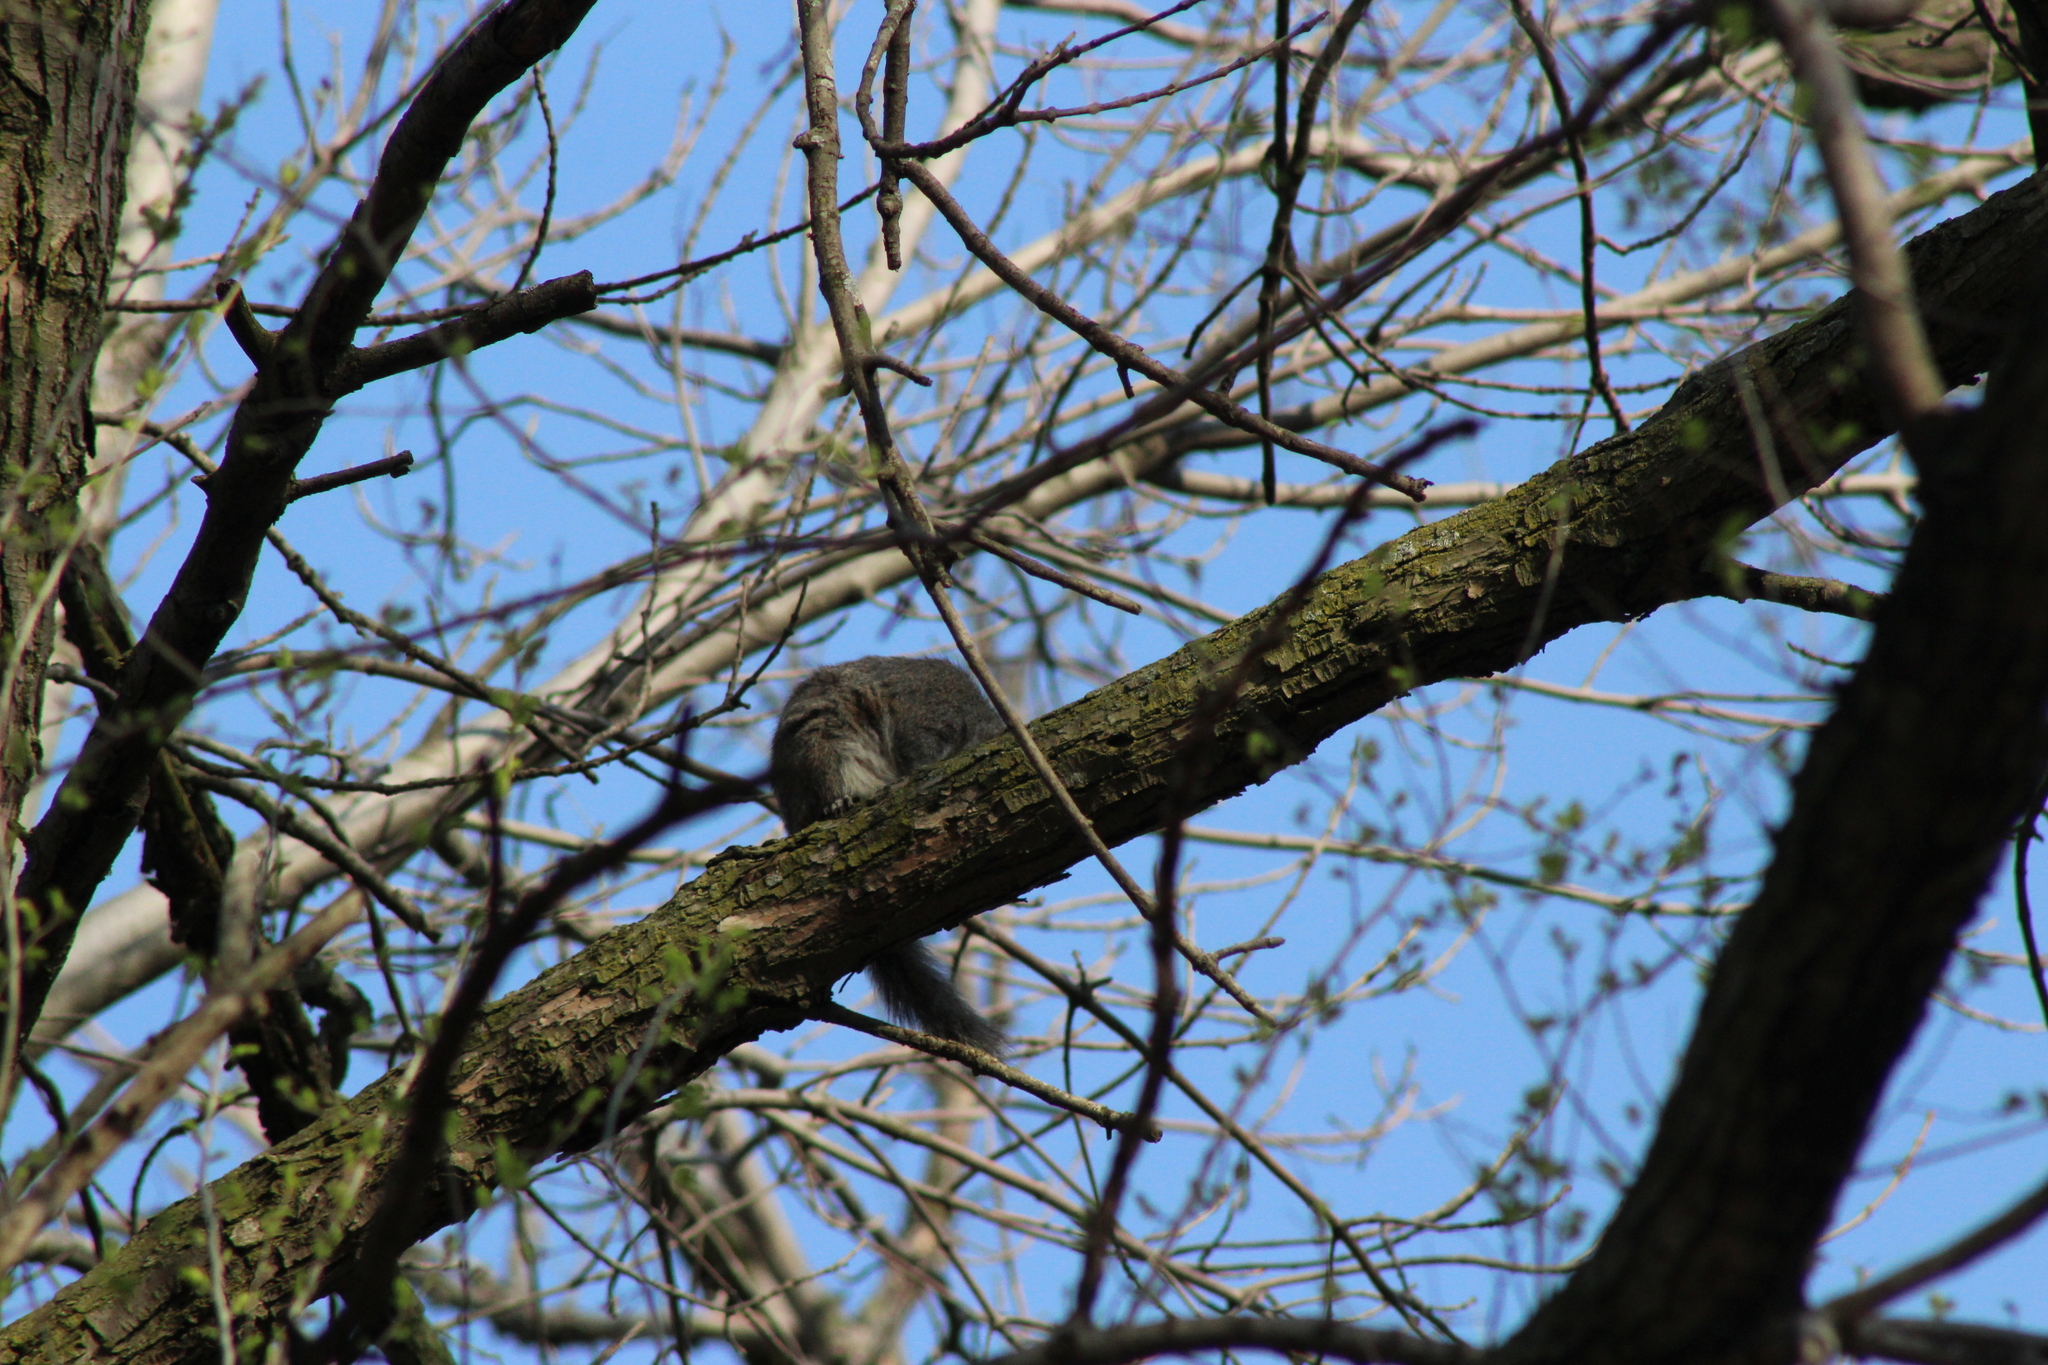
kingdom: Animalia
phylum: Chordata
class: Mammalia
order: Rodentia
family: Sciuridae
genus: Sciurus
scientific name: Sciurus carolinensis
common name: Eastern gray squirrel
